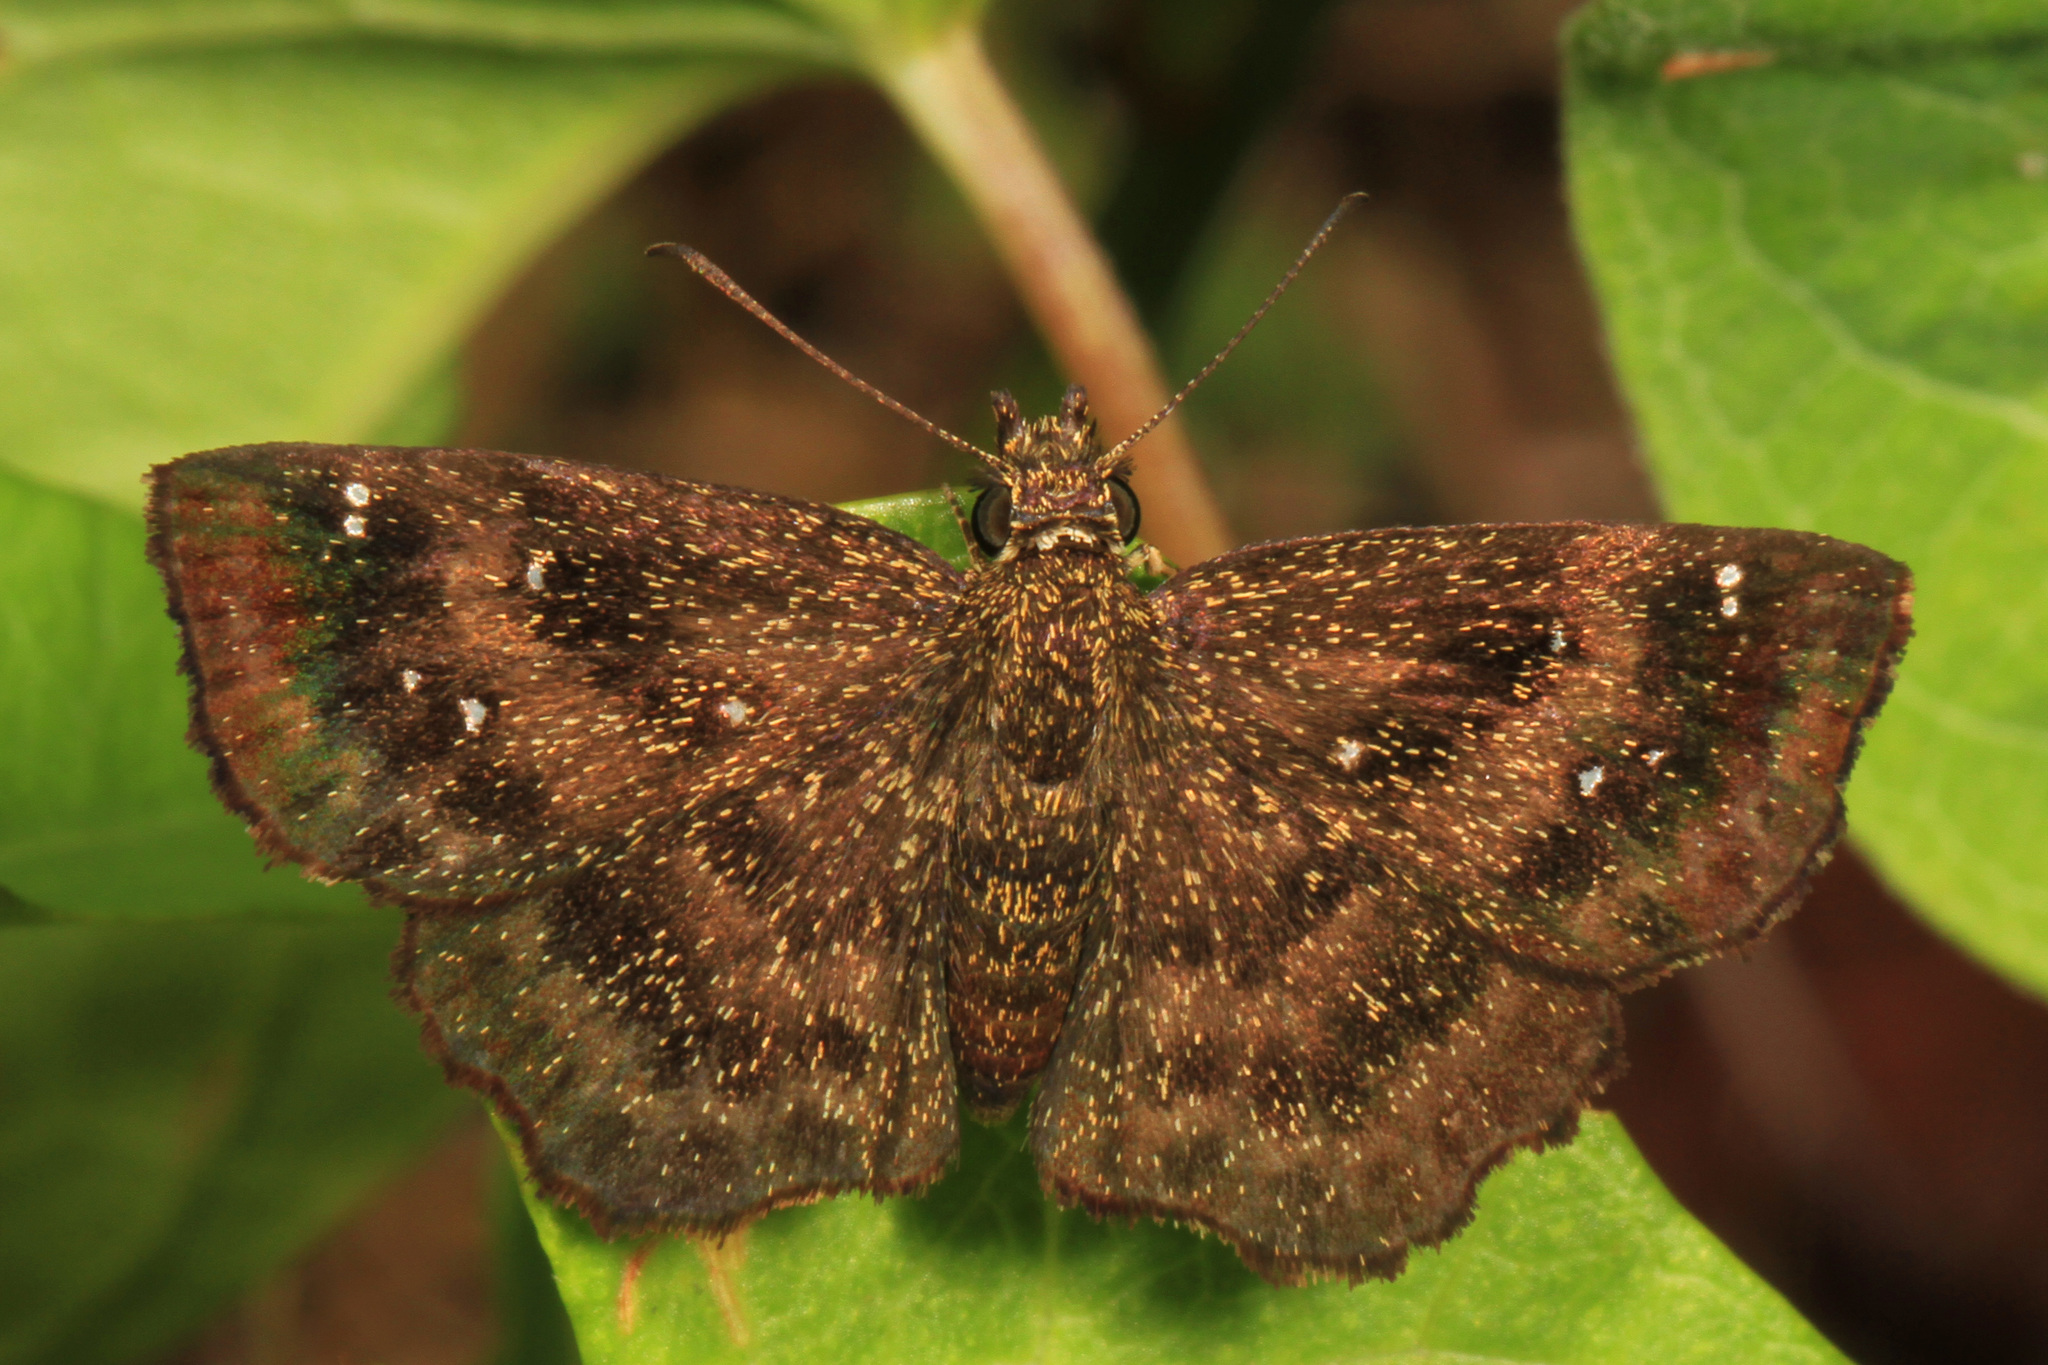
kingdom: Animalia
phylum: Arthropoda
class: Insecta
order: Lepidoptera
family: Hesperiidae
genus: Staphylus
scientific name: Staphylus mazans
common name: Mazans scallopwing
